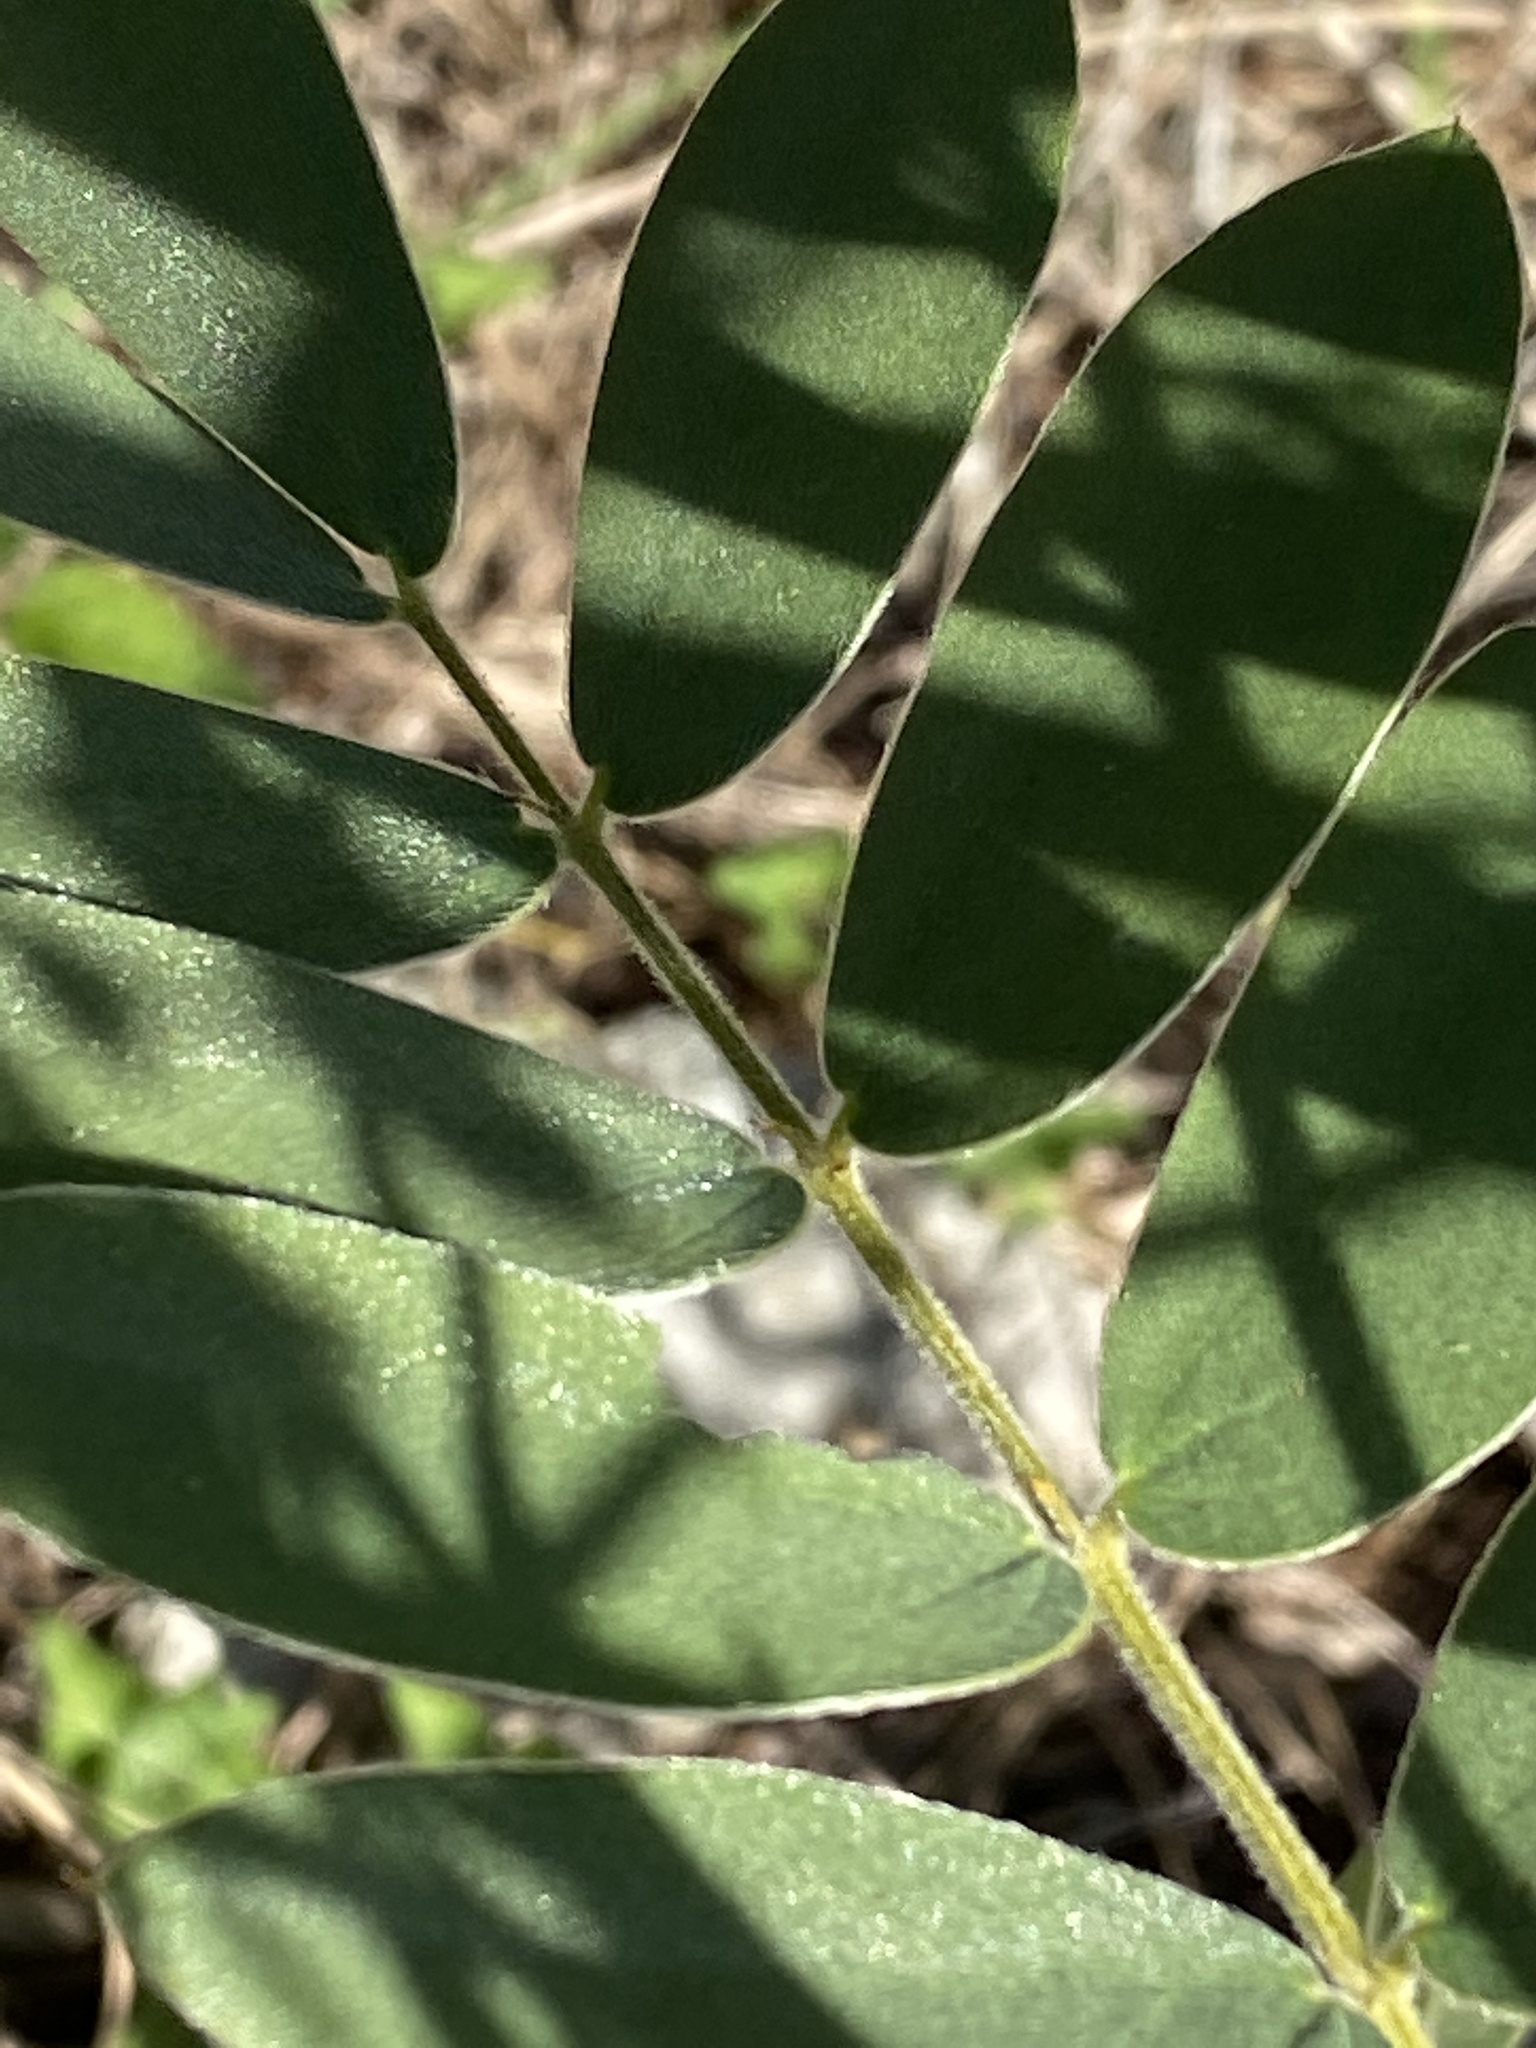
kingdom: Plantae
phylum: Tracheophyta
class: Magnoliopsida
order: Fabales
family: Fabaceae
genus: Senna
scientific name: Senna lindheimeriana
